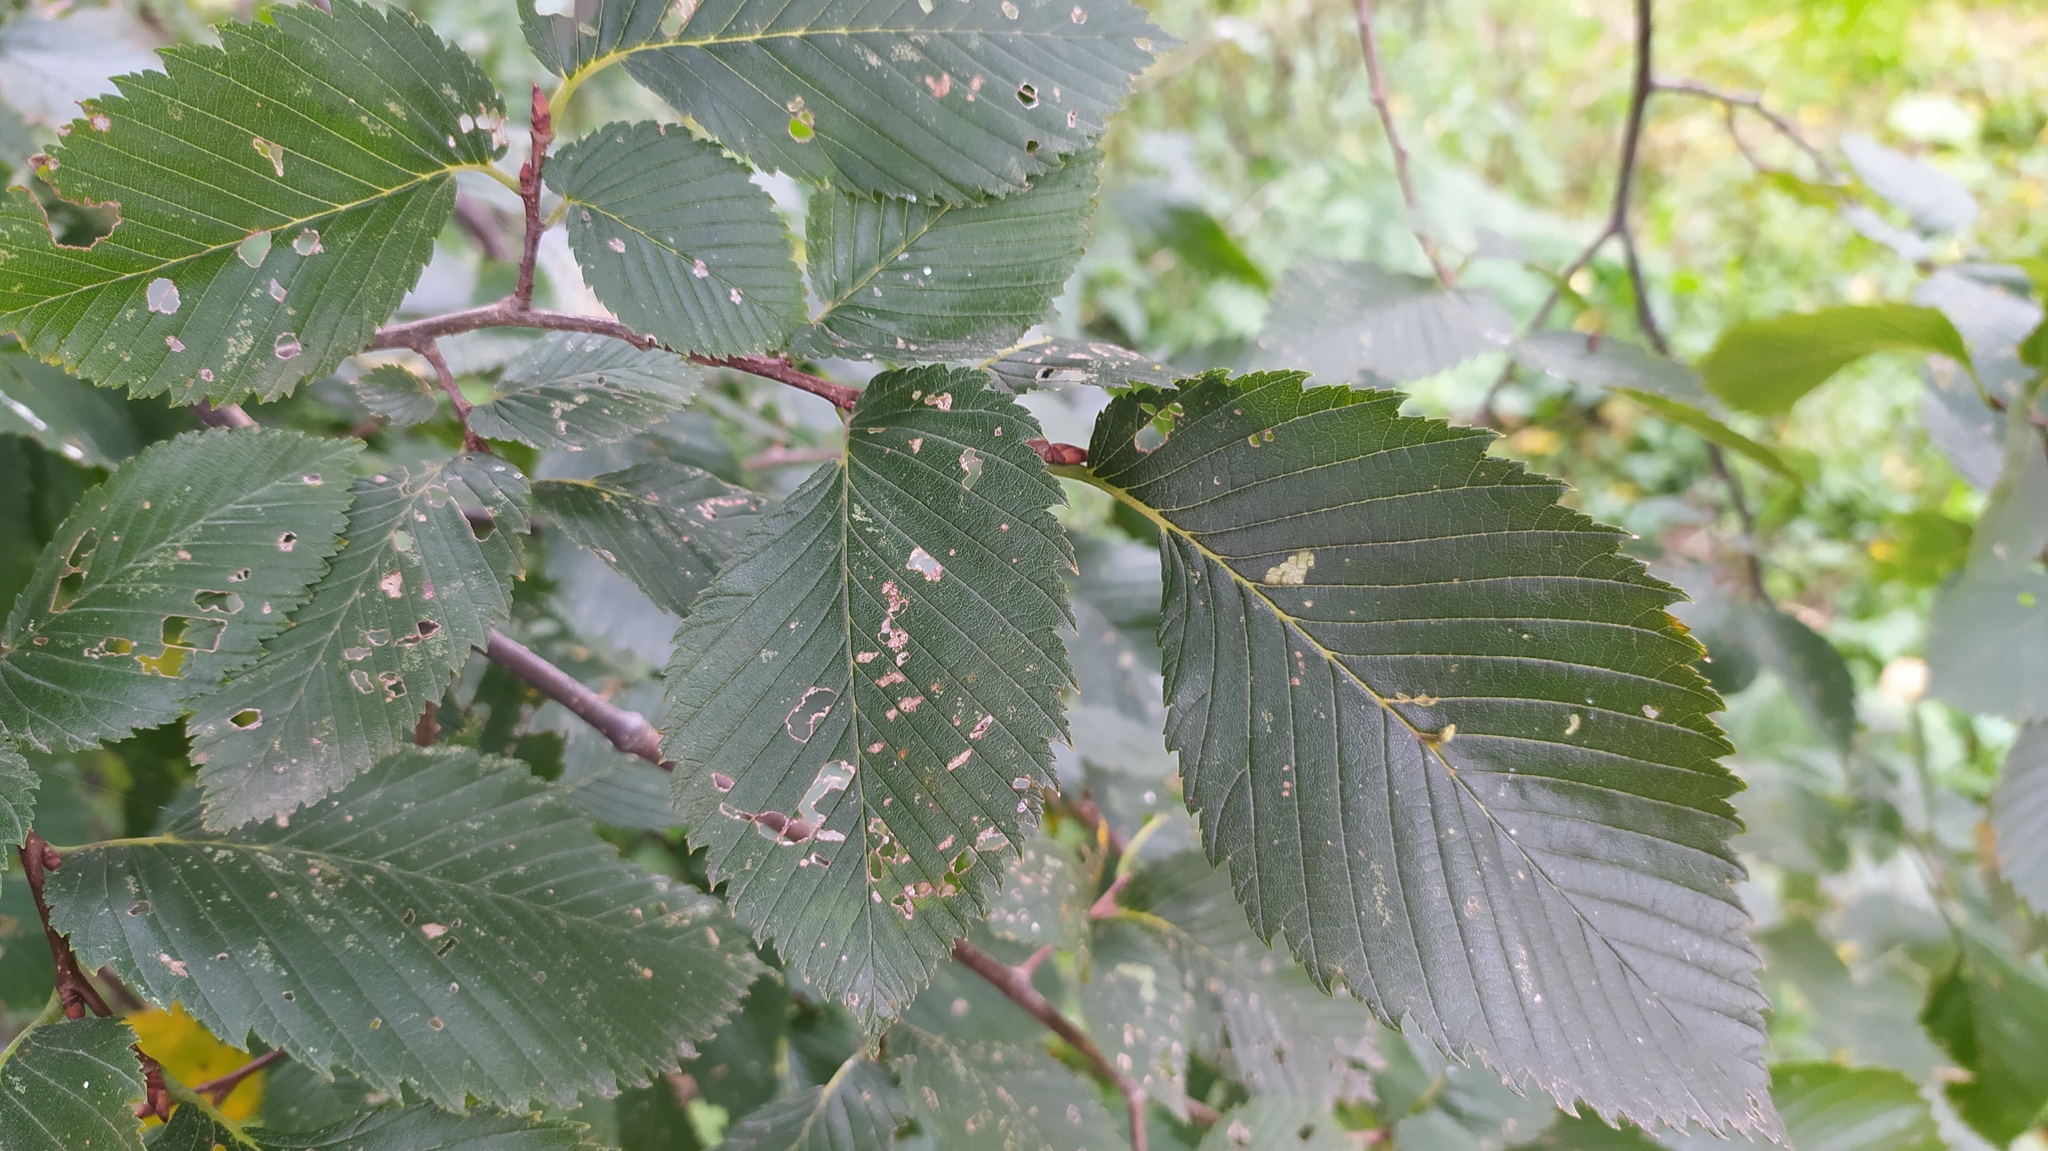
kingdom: Plantae
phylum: Tracheophyta
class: Magnoliopsida
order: Rosales
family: Ulmaceae
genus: Ulmus
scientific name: Ulmus laevis
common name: European white-elm
